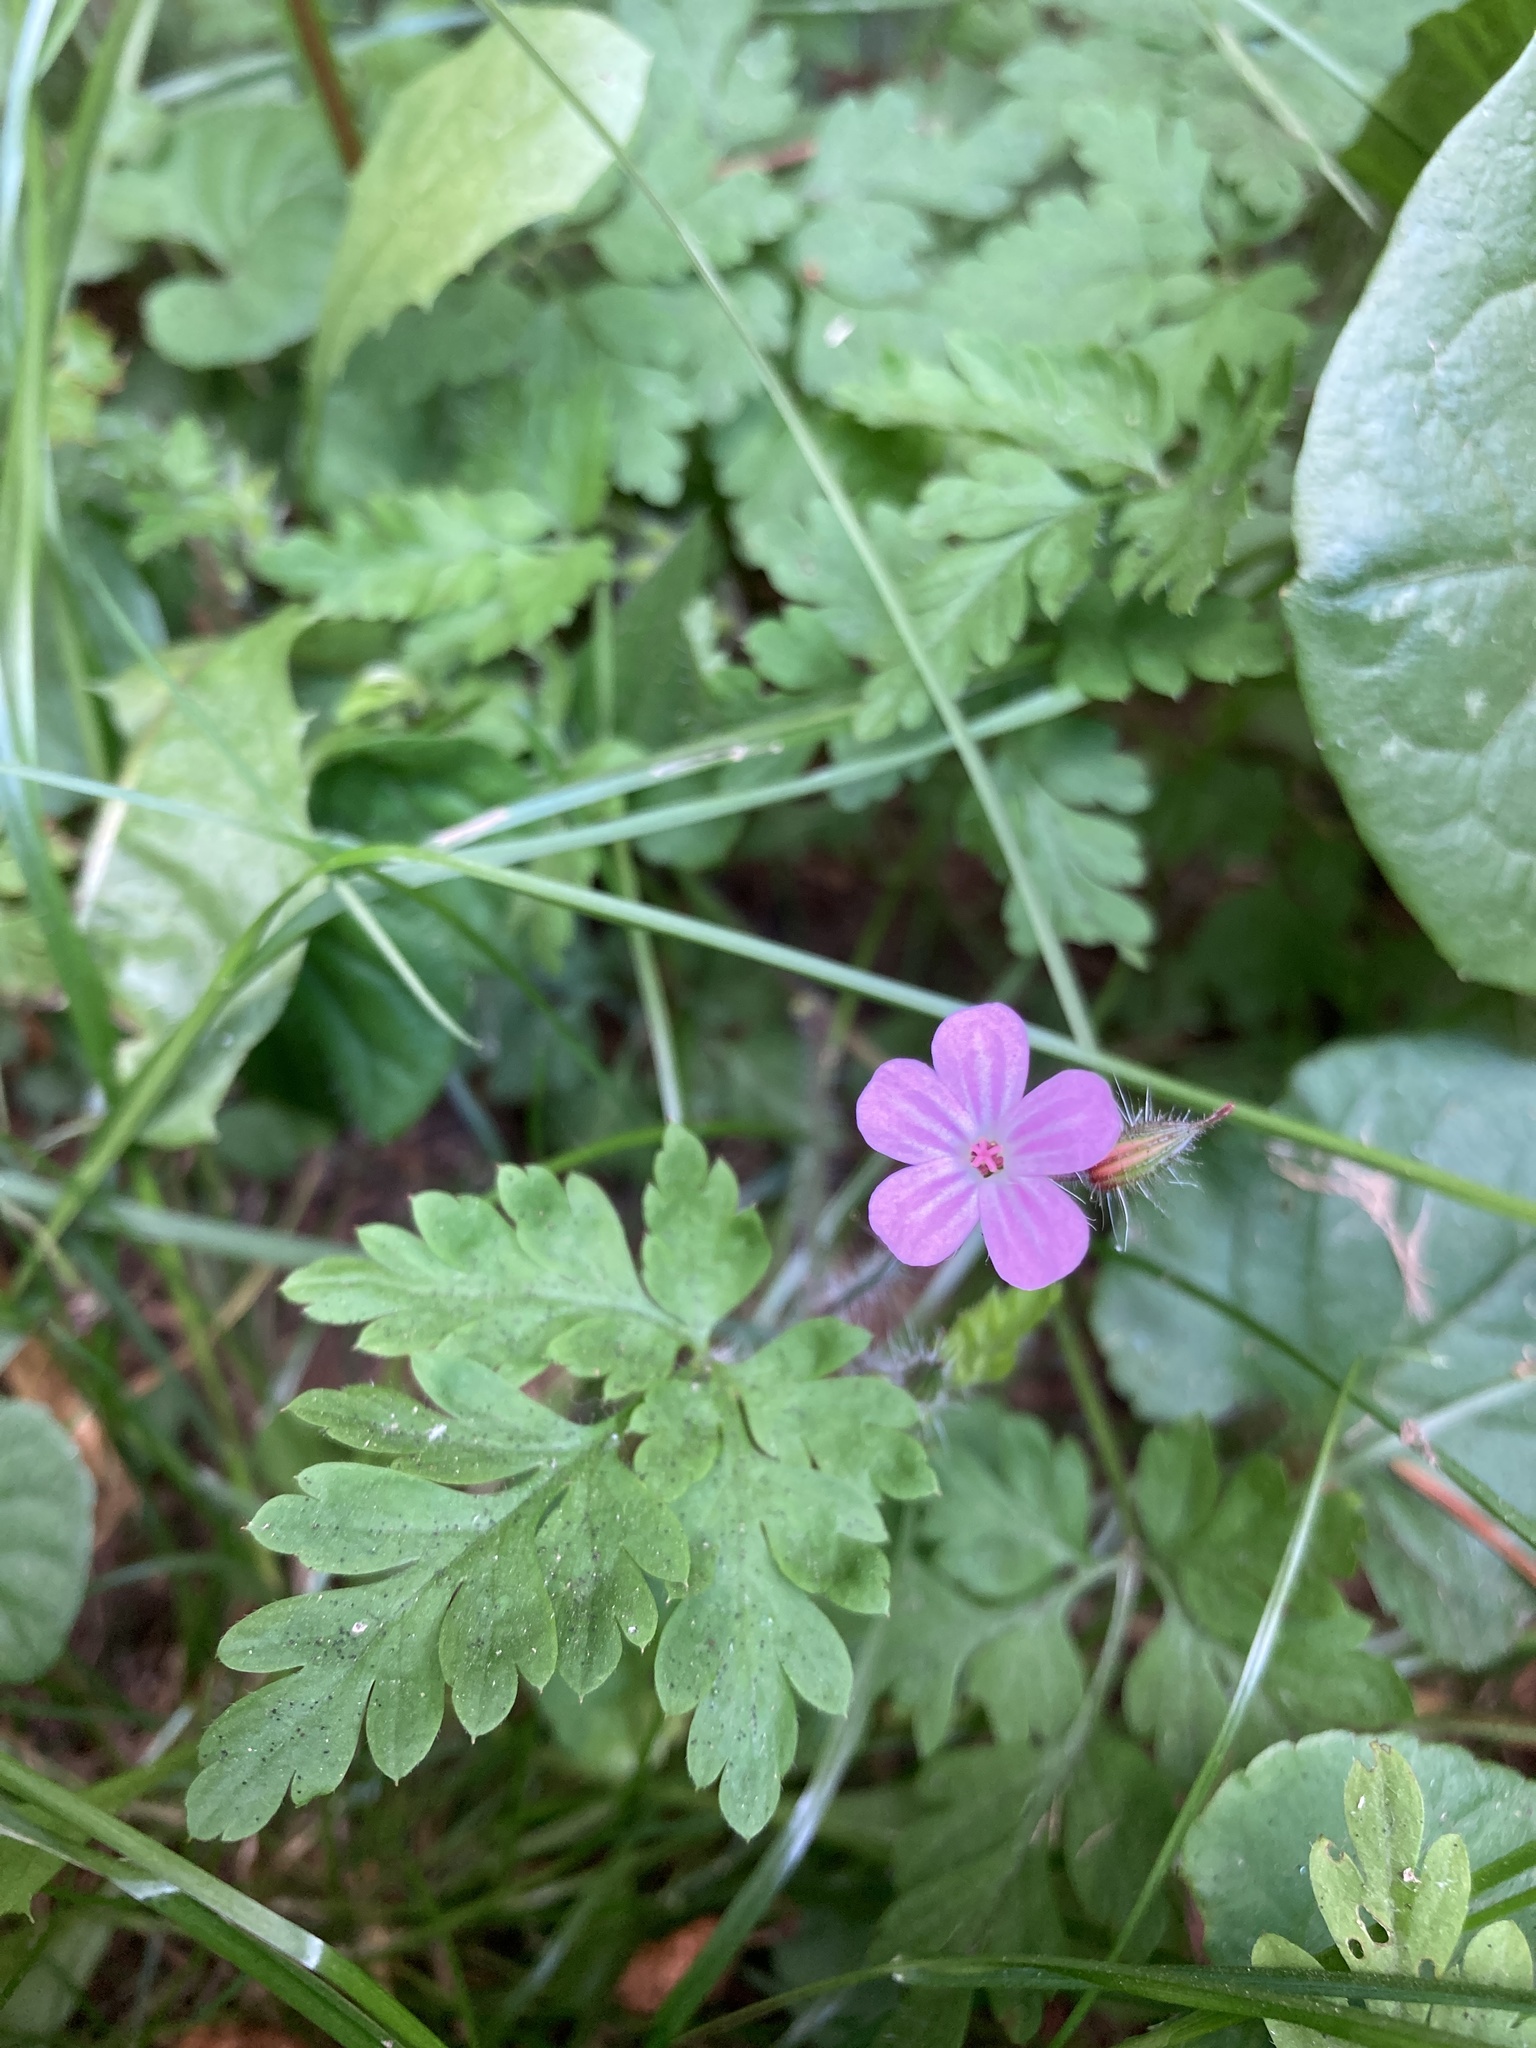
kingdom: Plantae
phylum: Tracheophyta
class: Magnoliopsida
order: Geraniales
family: Geraniaceae
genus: Geranium
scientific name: Geranium robertianum
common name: Herb-robert
